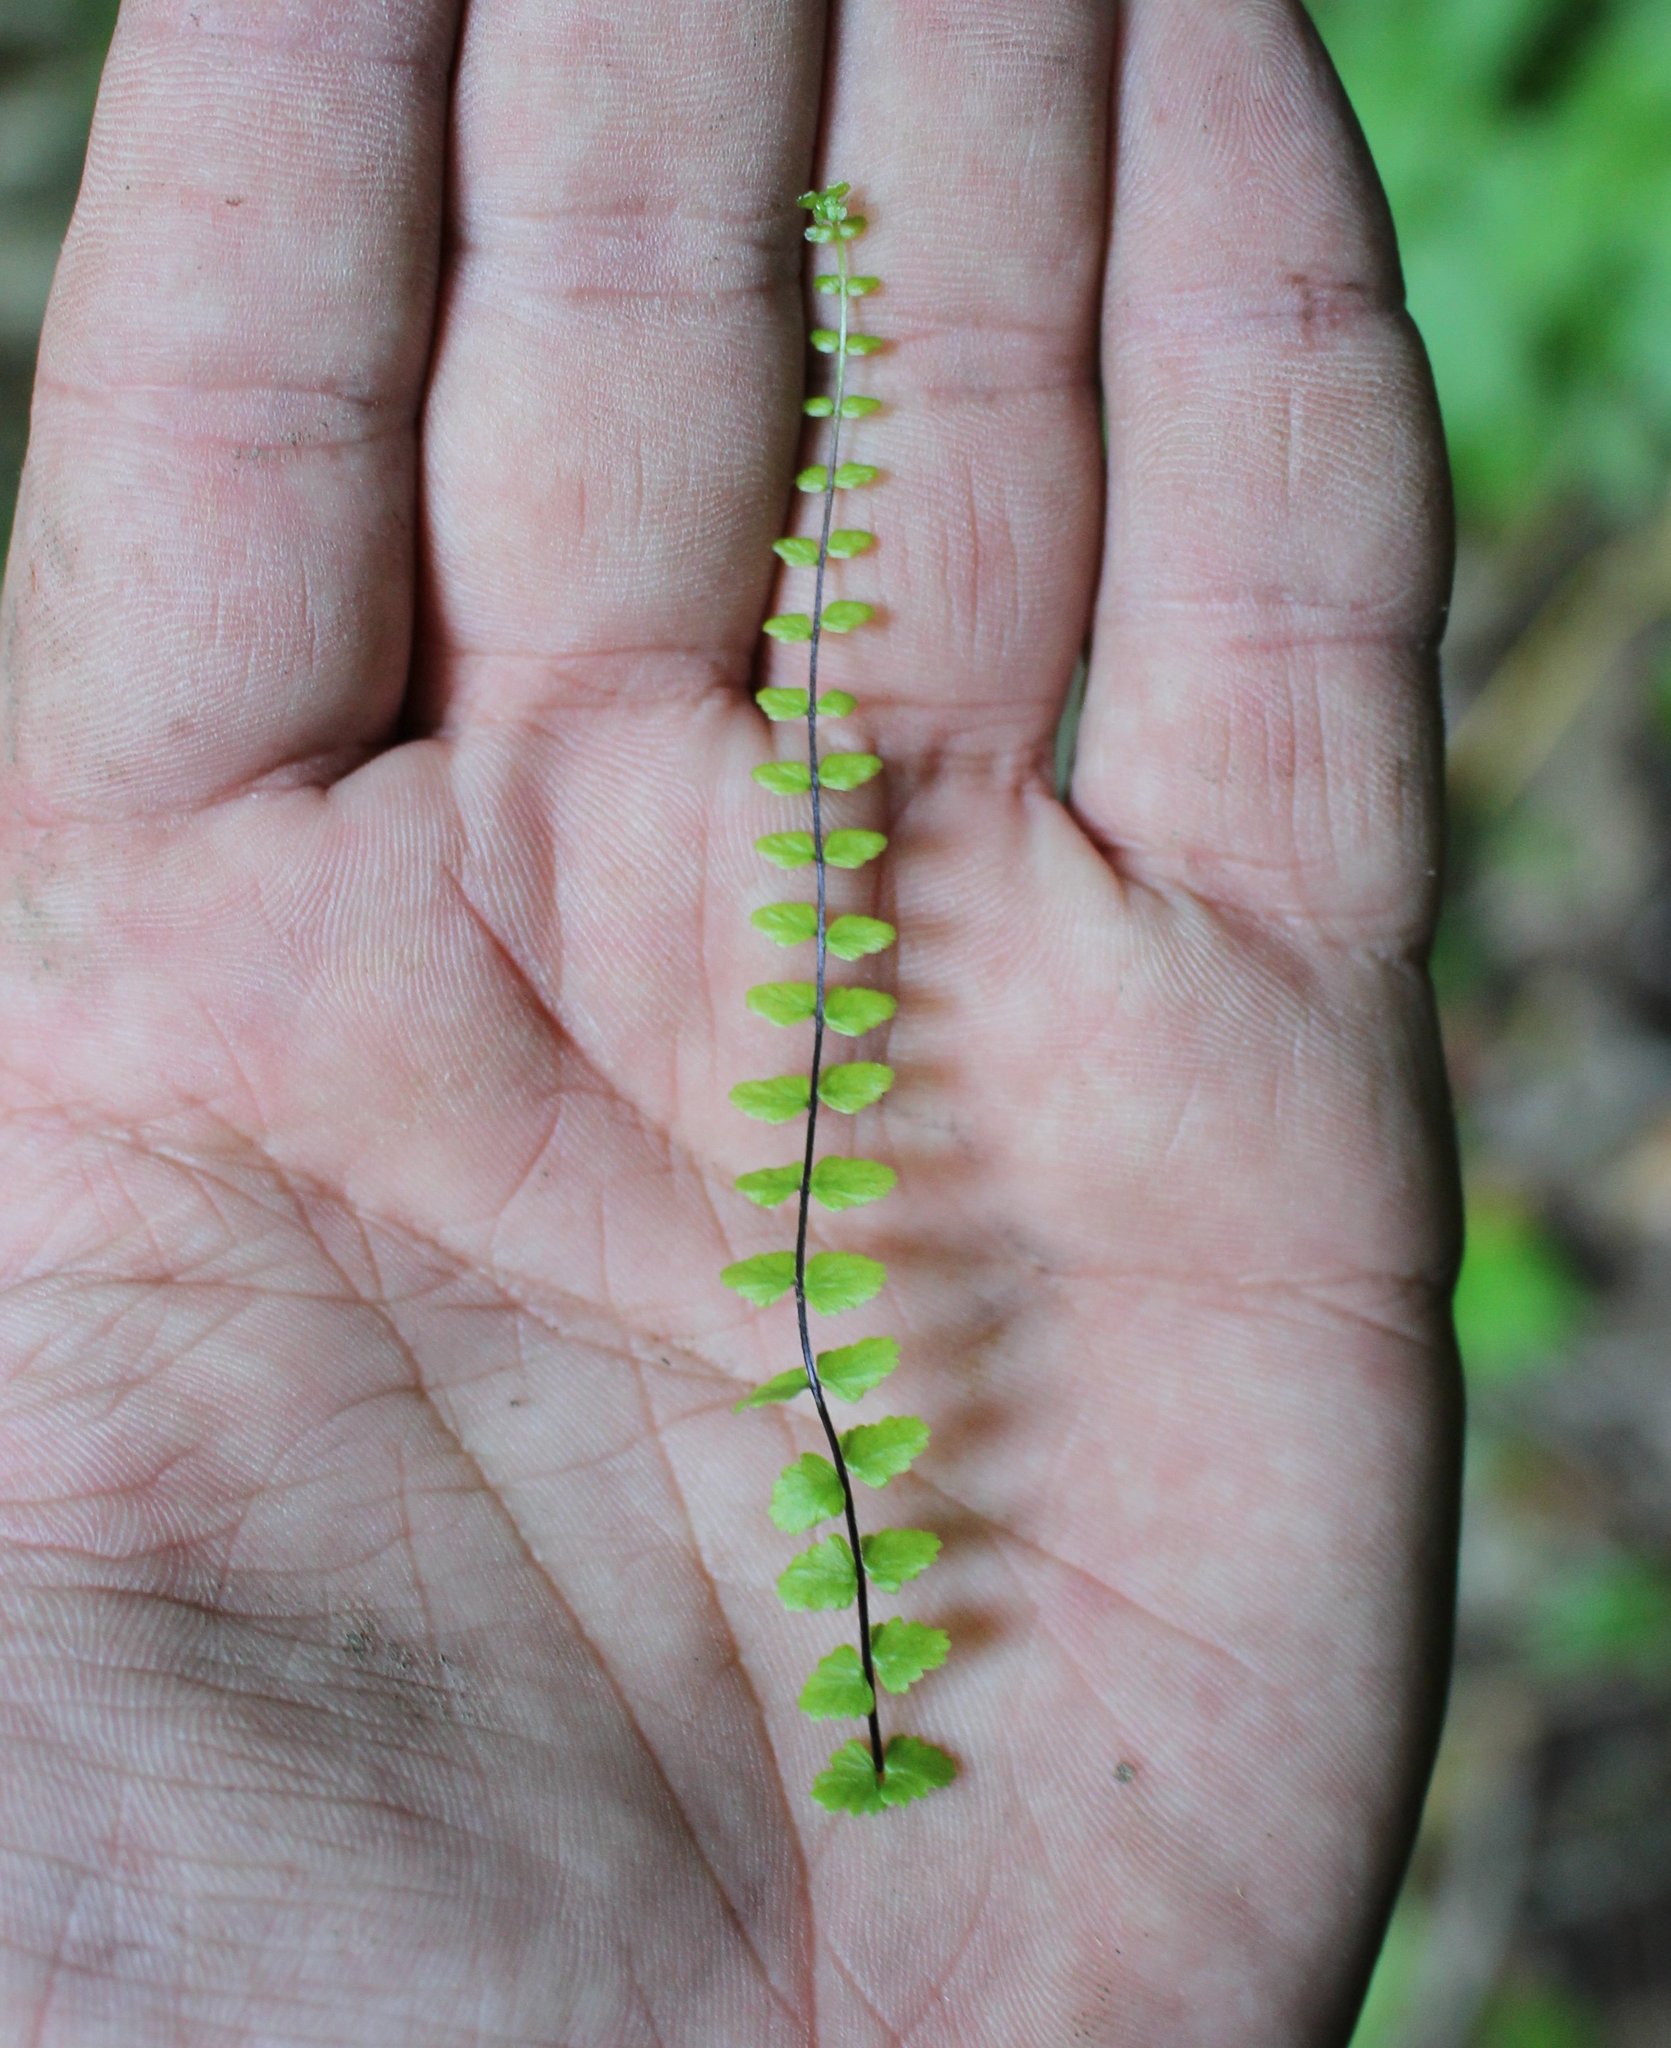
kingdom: Plantae
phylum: Tracheophyta
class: Polypodiopsida
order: Polypodiales
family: Aspleniaceae
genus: Asplenium
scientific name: Asplenium trichomanes
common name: Maidenhair spleenwort
